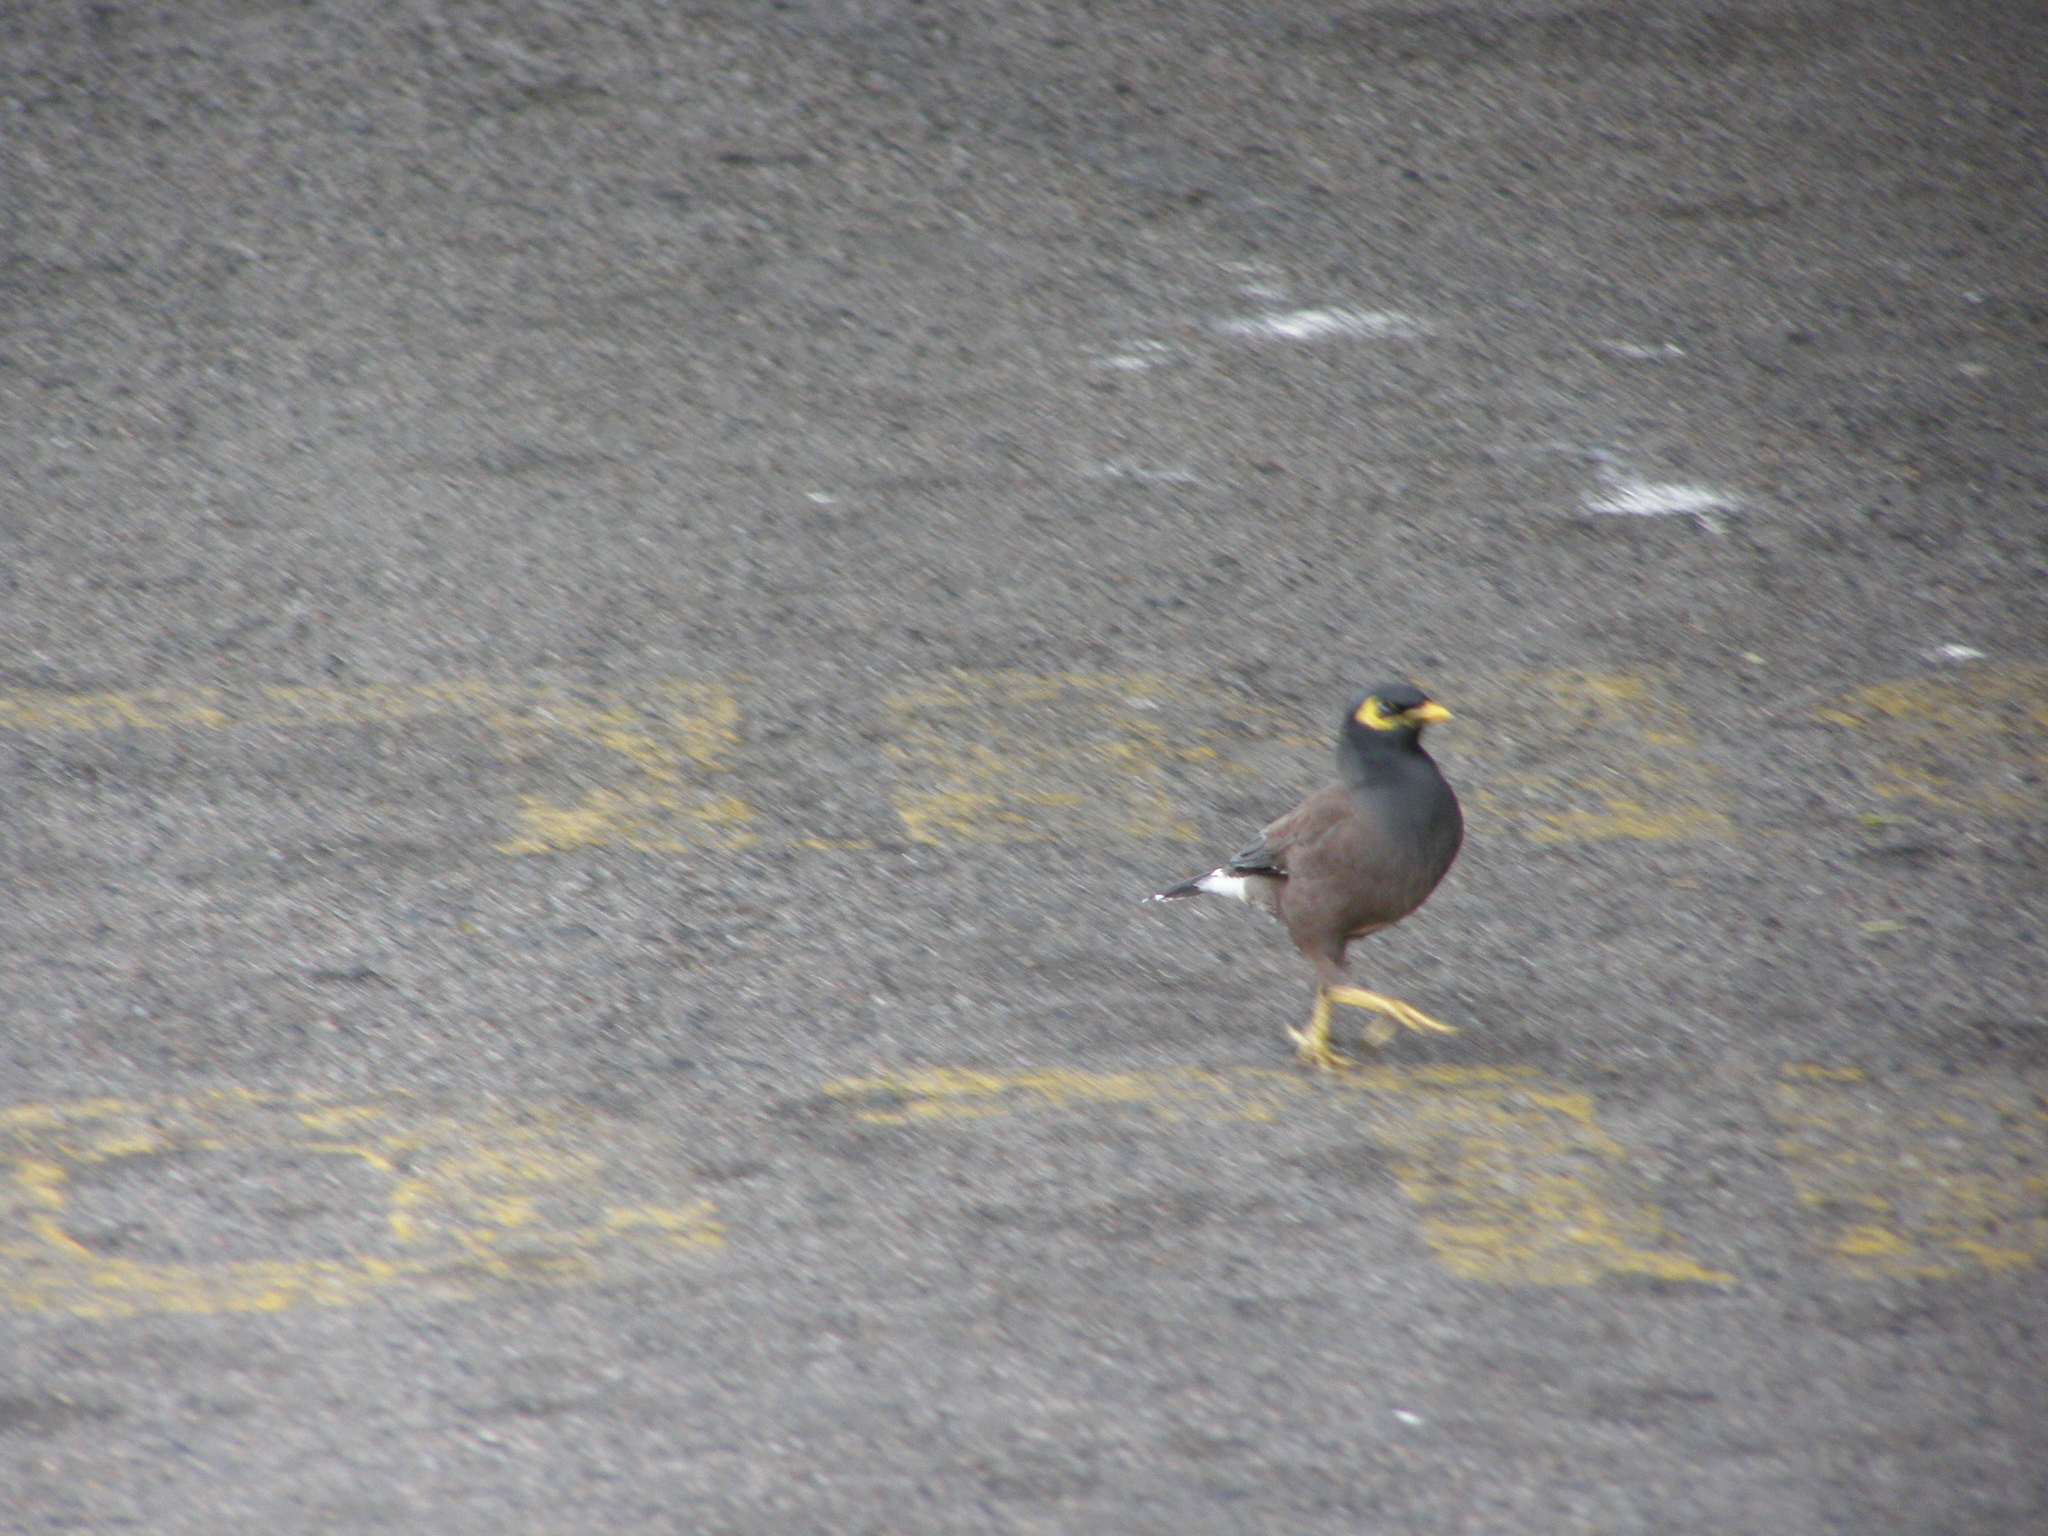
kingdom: Animalia
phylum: Chordata
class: Aves
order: Passeriformes
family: Sturnidae
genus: Acridotheres
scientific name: Acridotheres tristis
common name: Common myna
